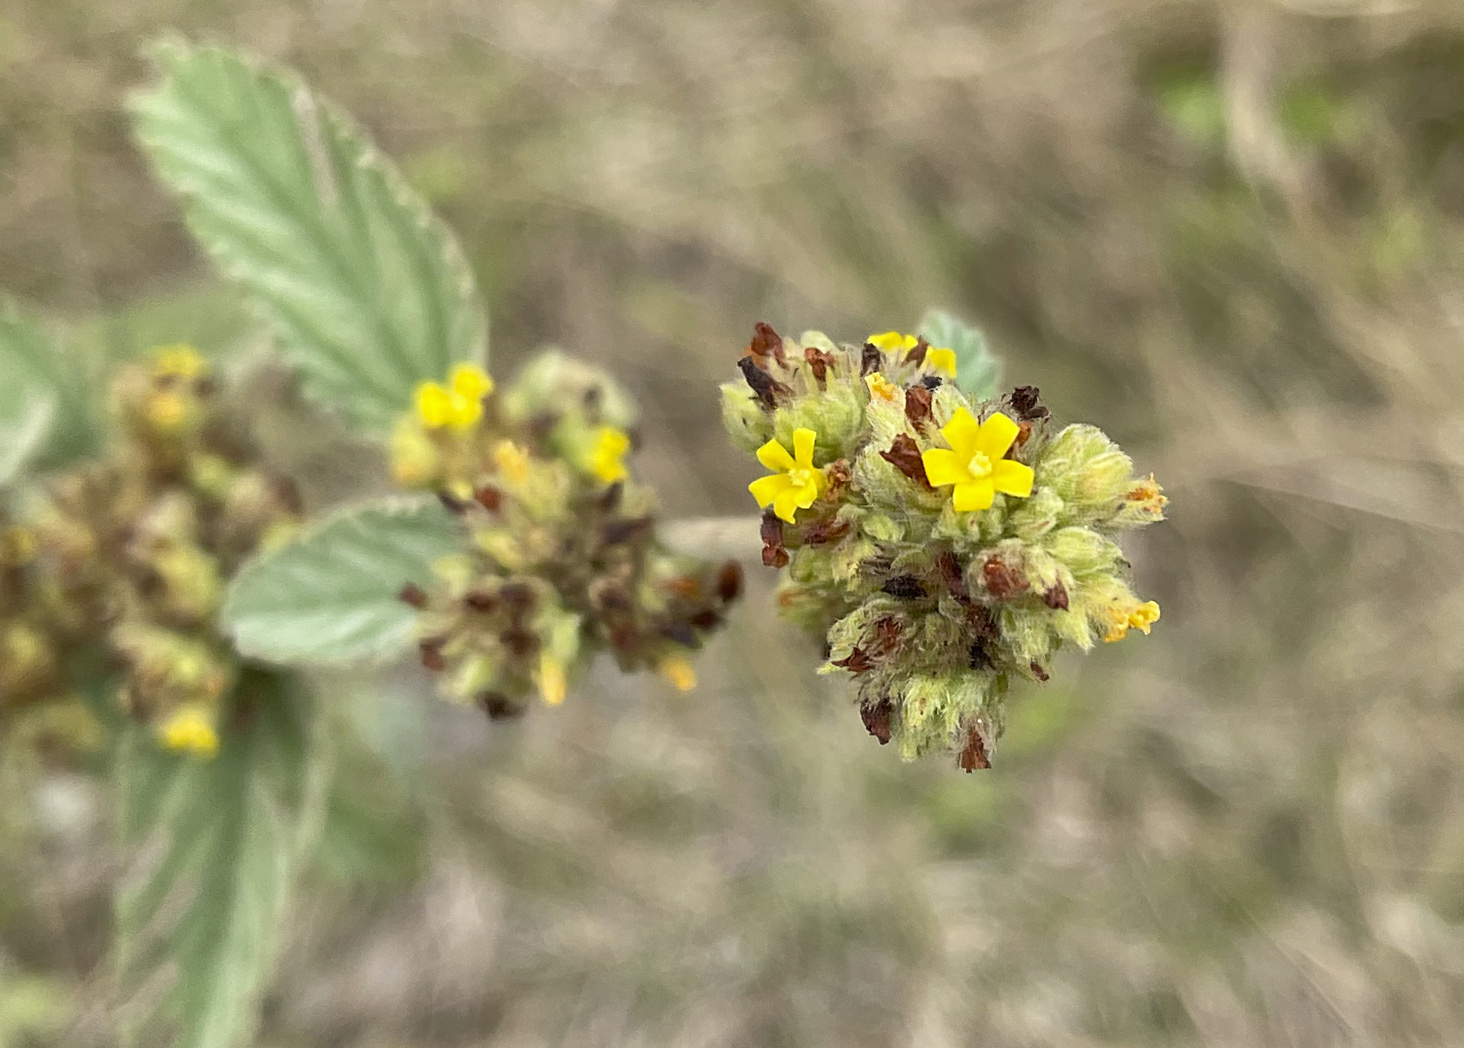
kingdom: Plantae
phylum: Tracheophyta
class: Magnoliopsida
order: Malvales
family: Malvaceae
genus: Waltheria
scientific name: Waltheria indica
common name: Leather-coat
